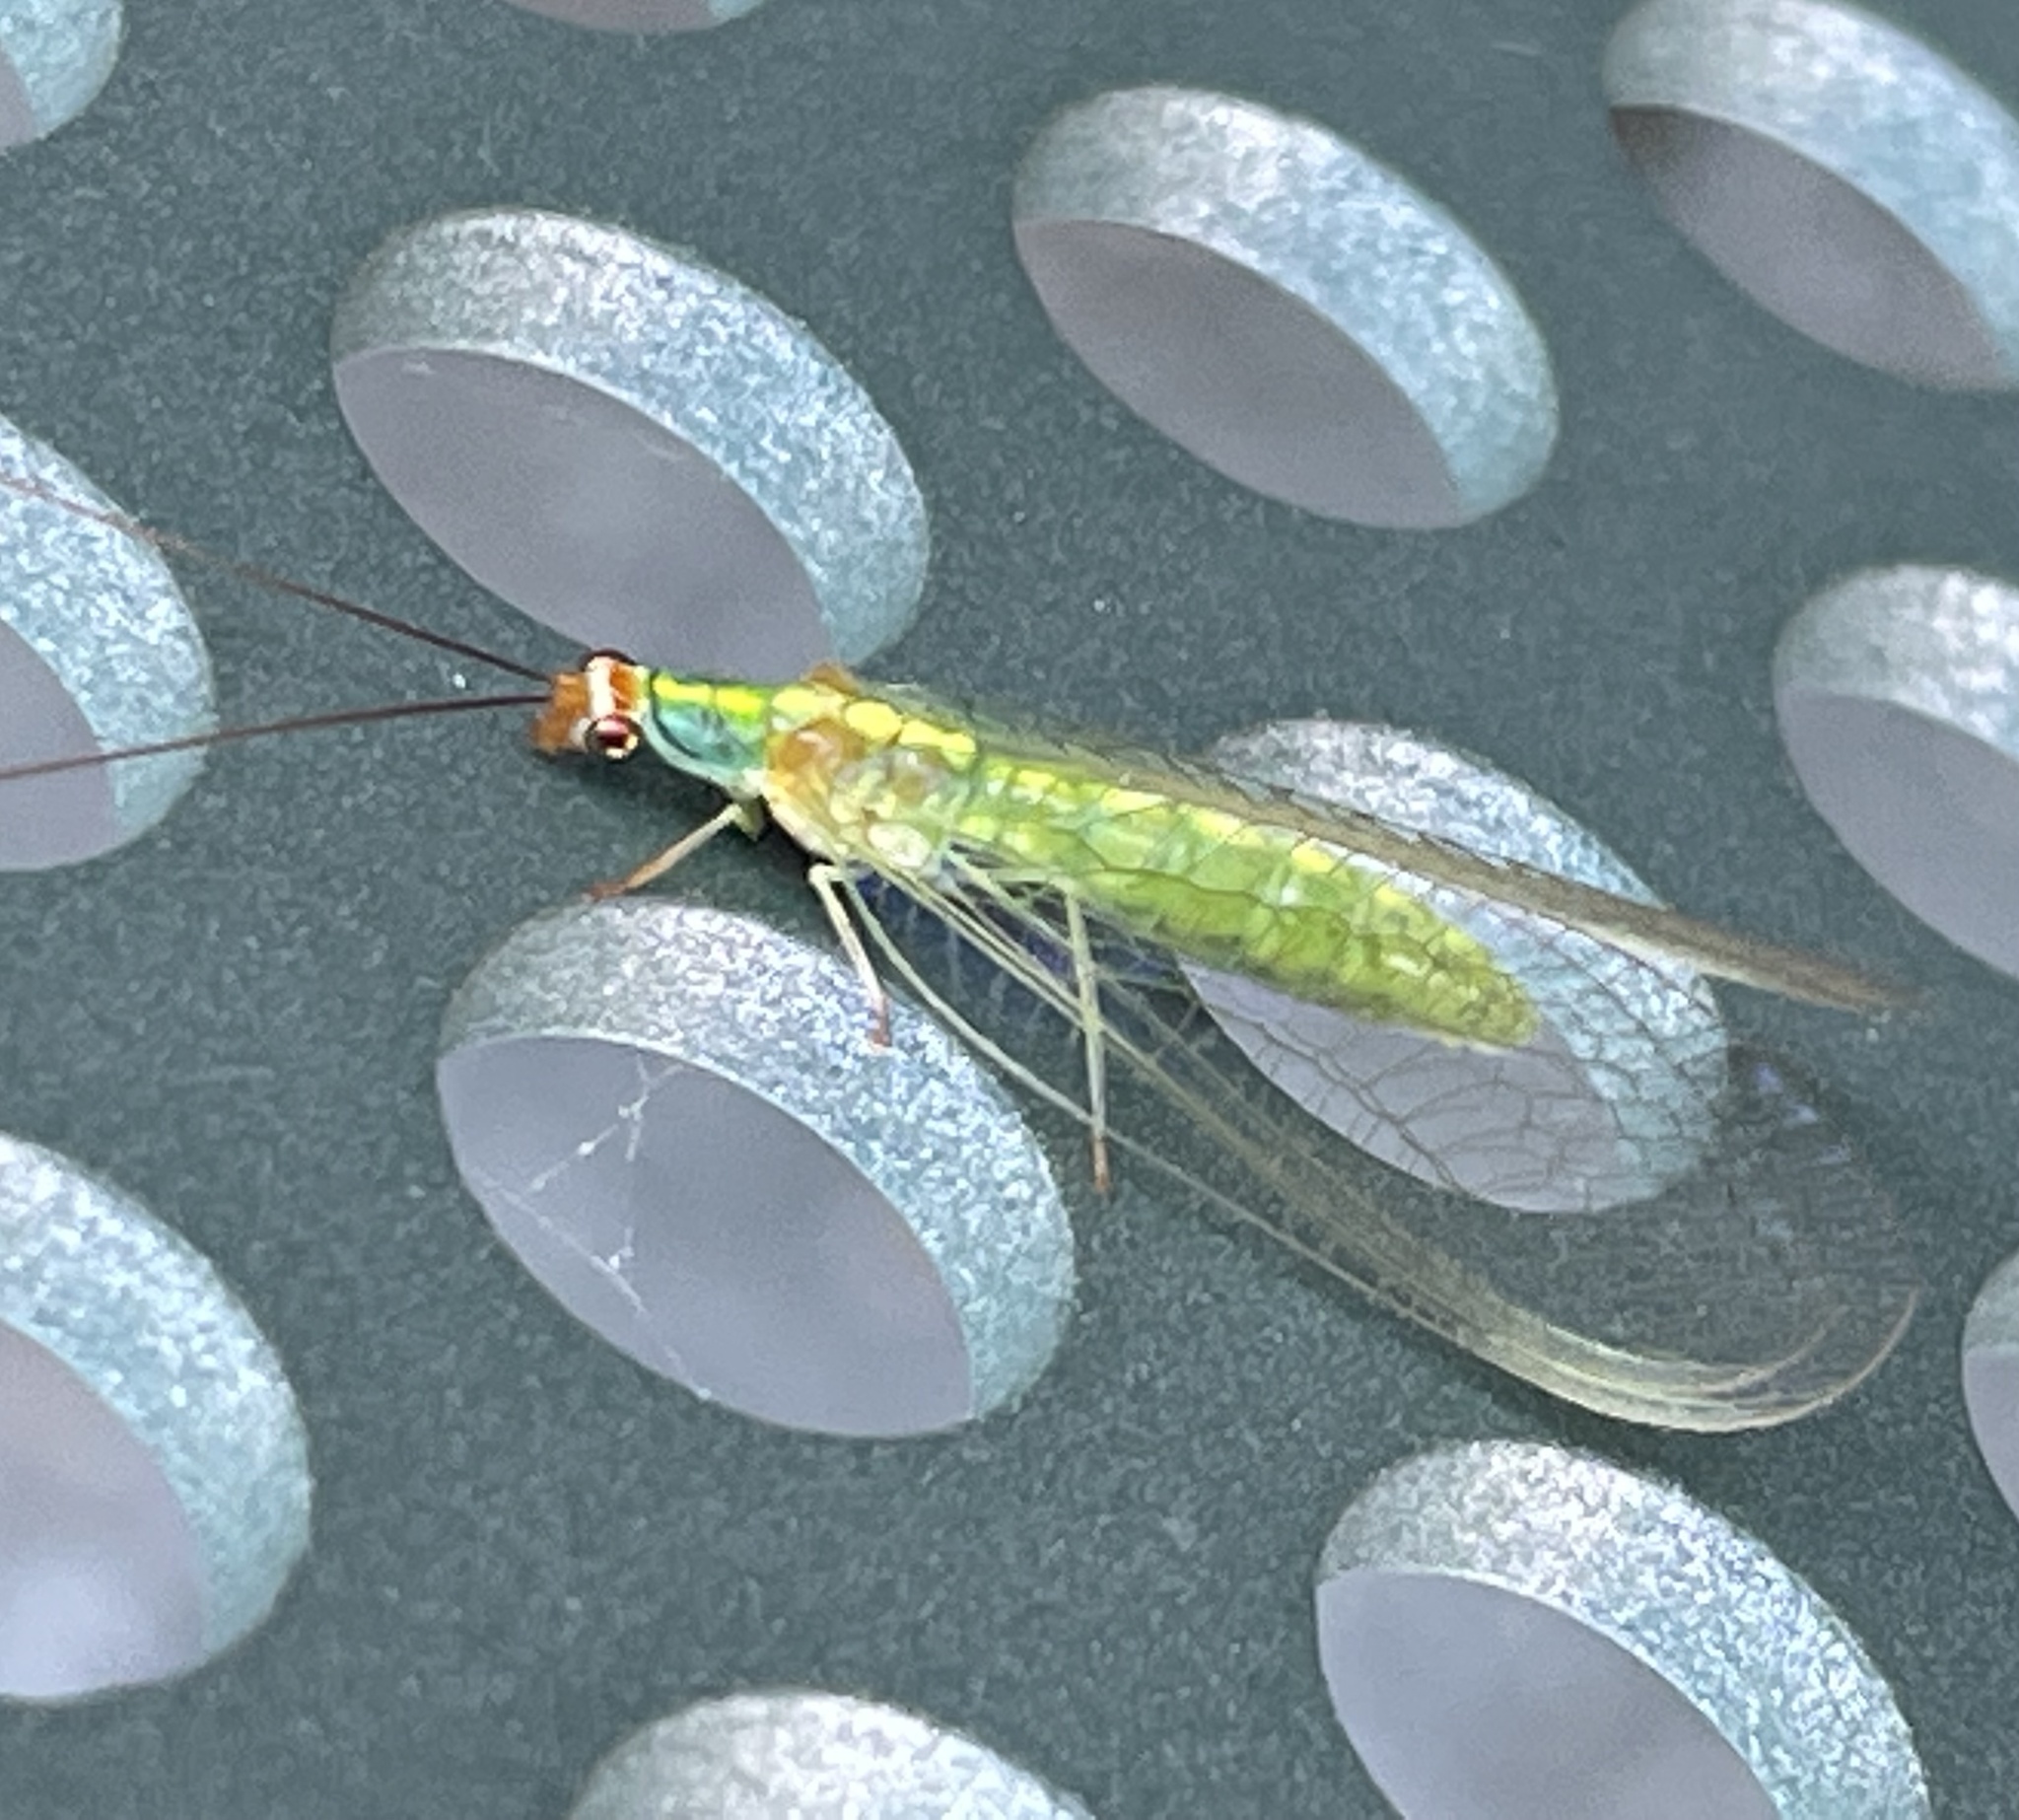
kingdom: Animalia
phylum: Arthropoda
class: Insecta
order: Neuroptera
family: Chrysopidae
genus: Plesiochrysa
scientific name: Plesiochrysa atalotis
